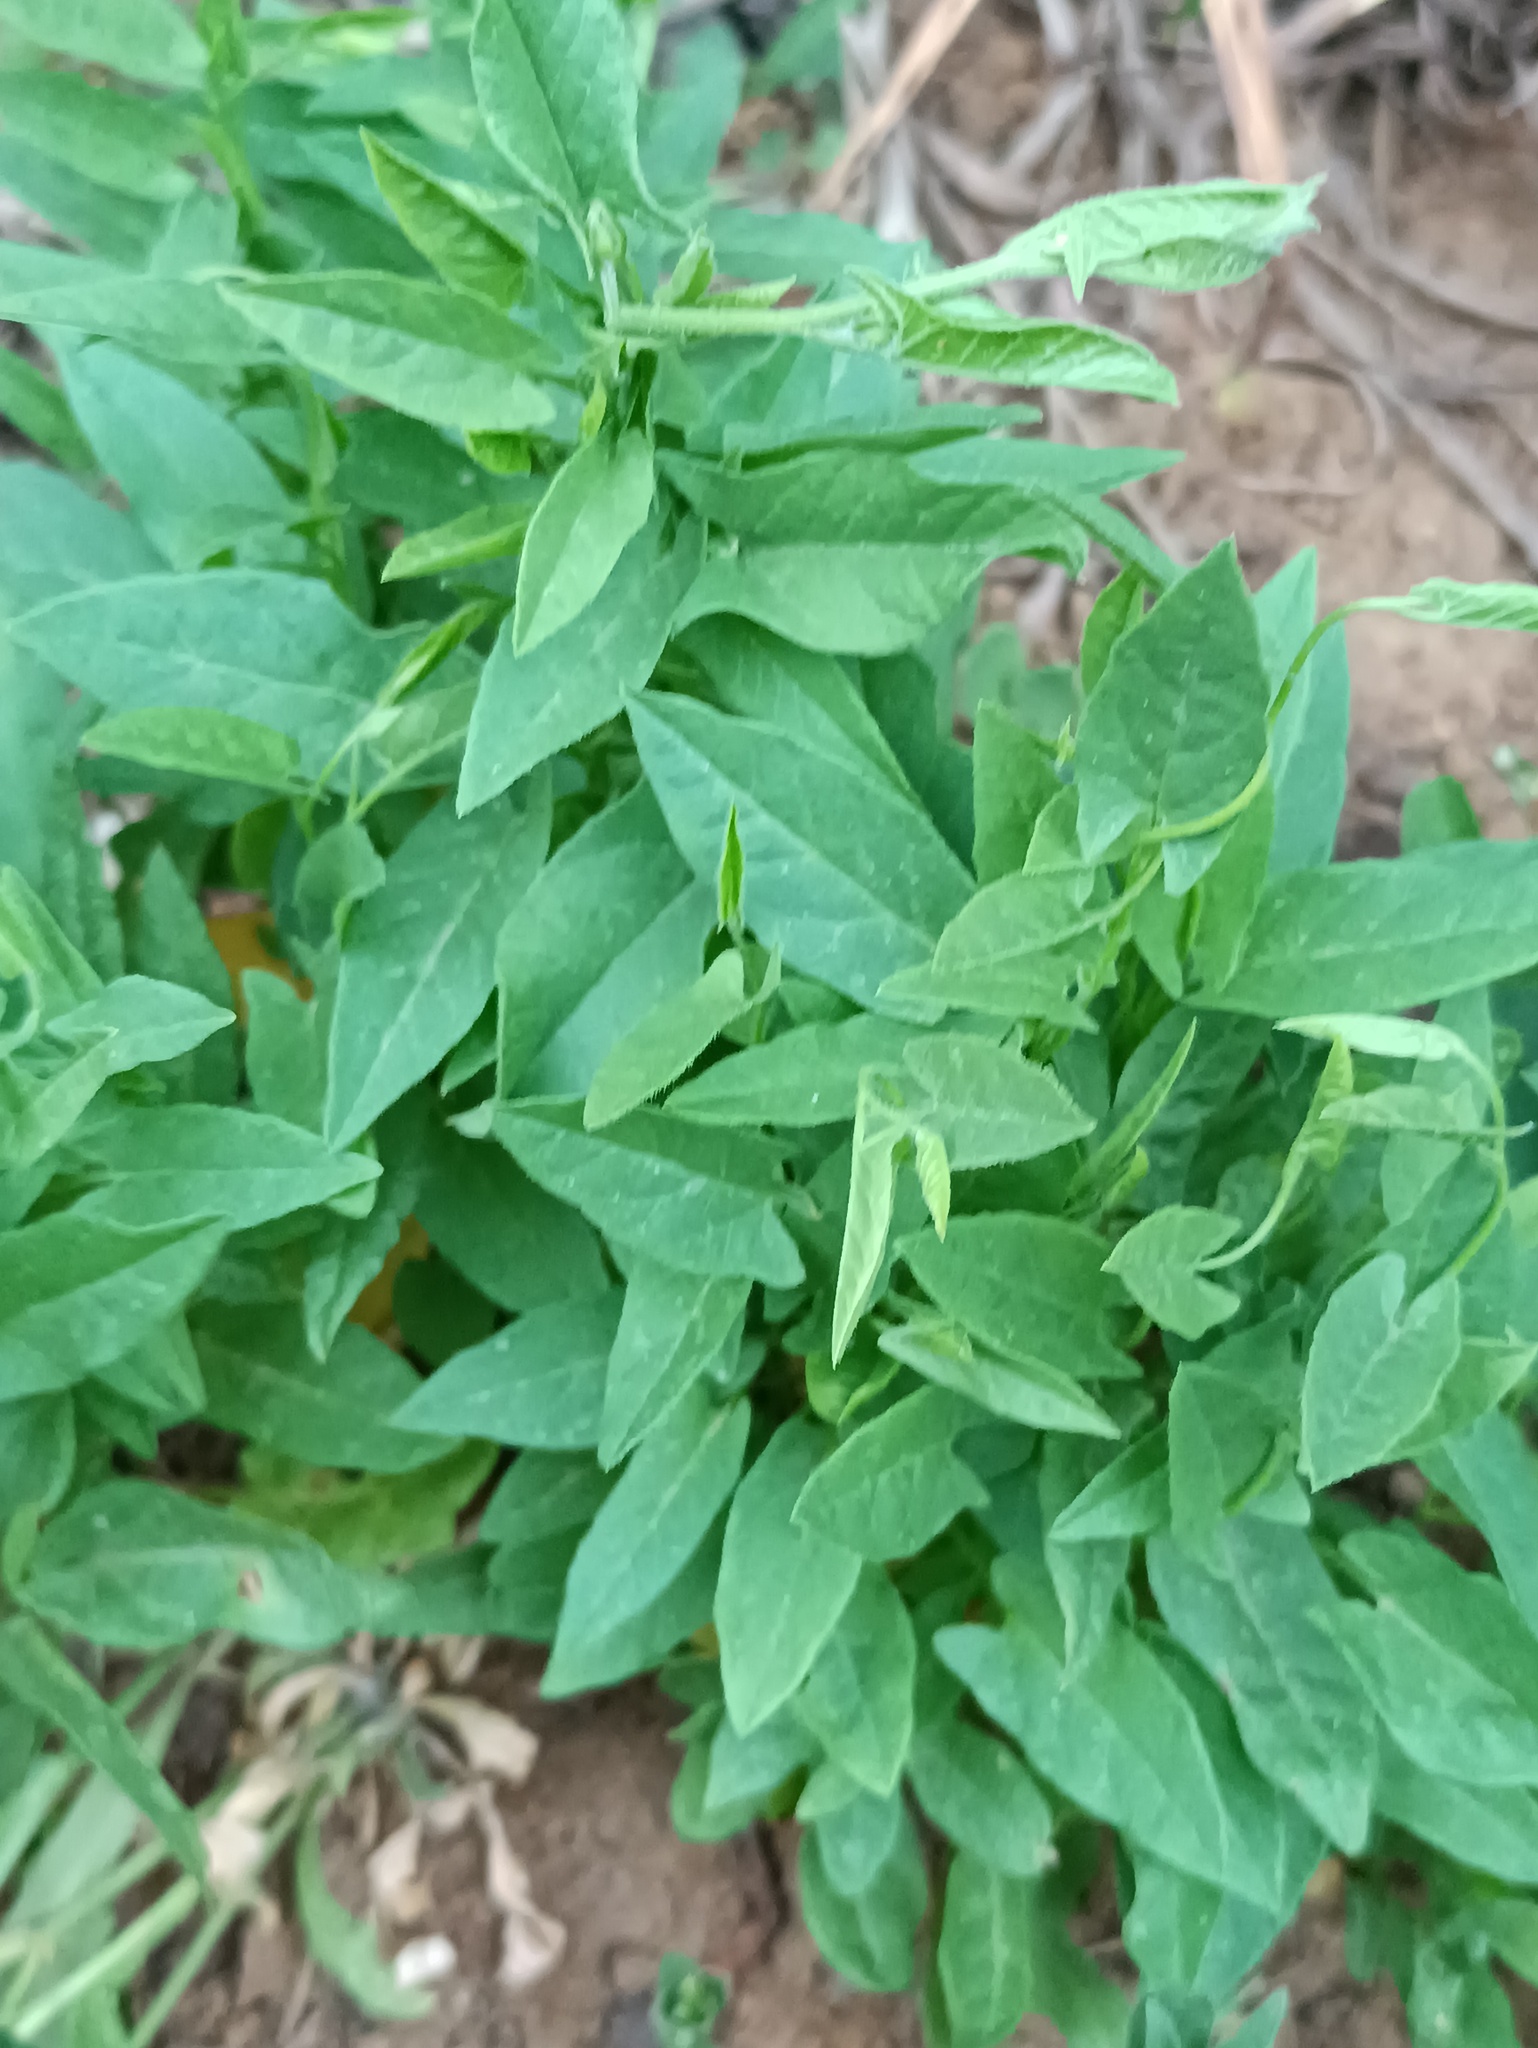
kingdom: Plantae
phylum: Tracheophyta
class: Magnoliopsida
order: Solanales
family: Convolvulaceae
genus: Convolvulus
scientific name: Convolvulus arvensis
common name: Field bindweed
